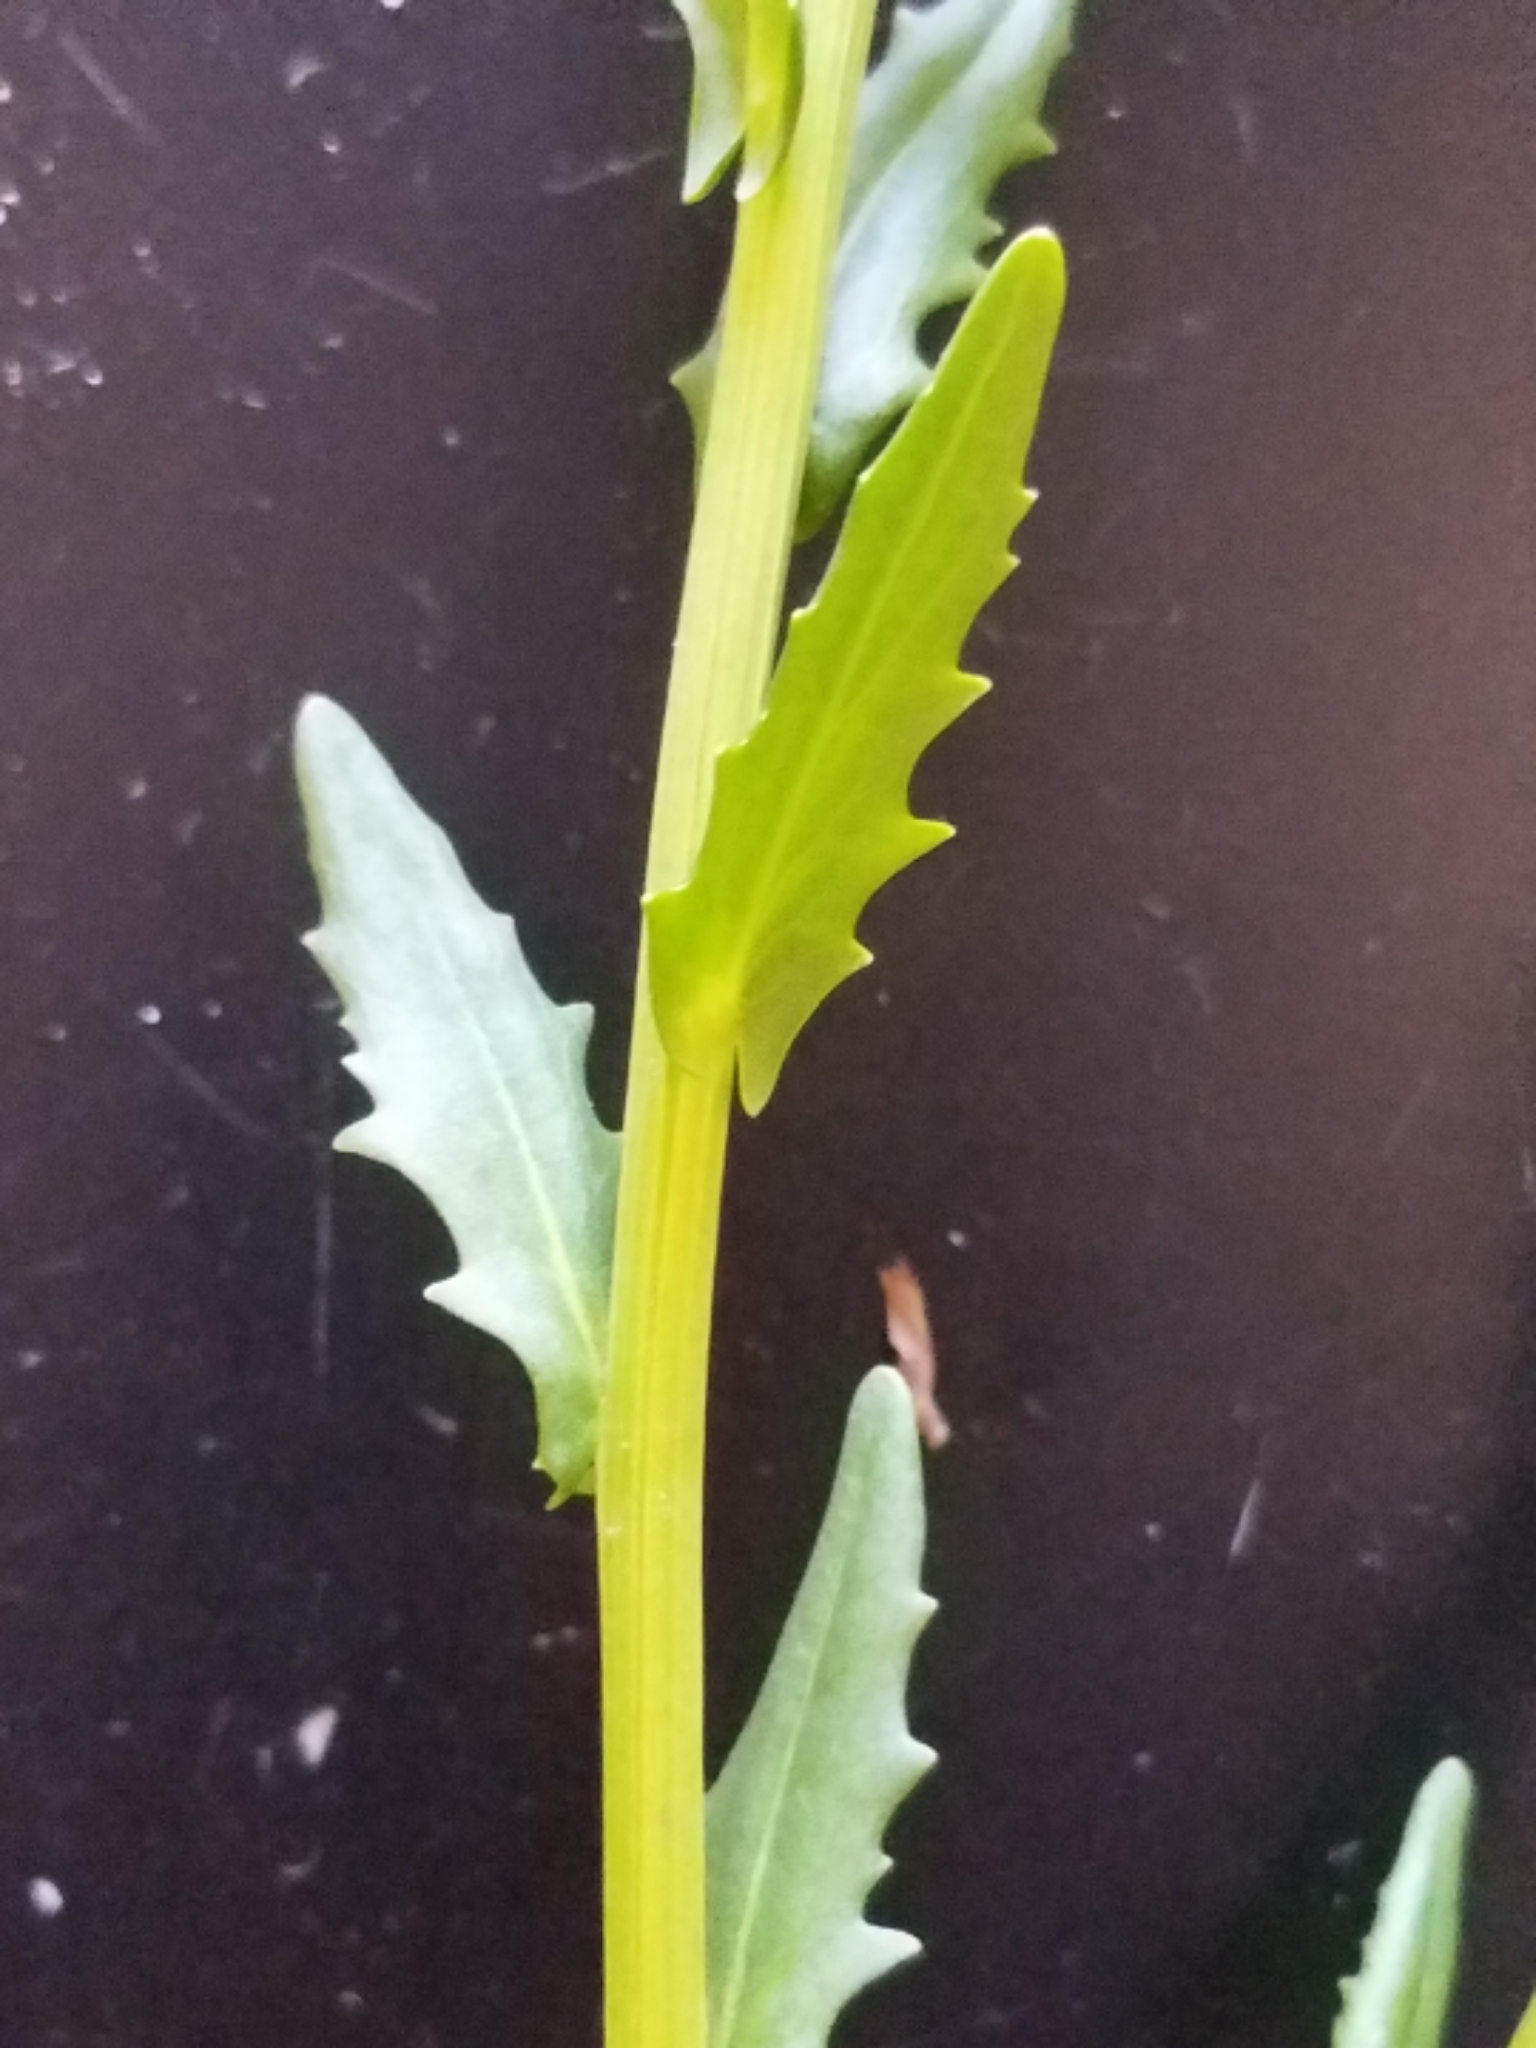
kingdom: Plantae
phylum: Tracheophyta
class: Magnoliopsida
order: Brassicales
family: Brassicaceae
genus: Thlaspi
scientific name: Thlaspi arvense
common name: Field pennycress
